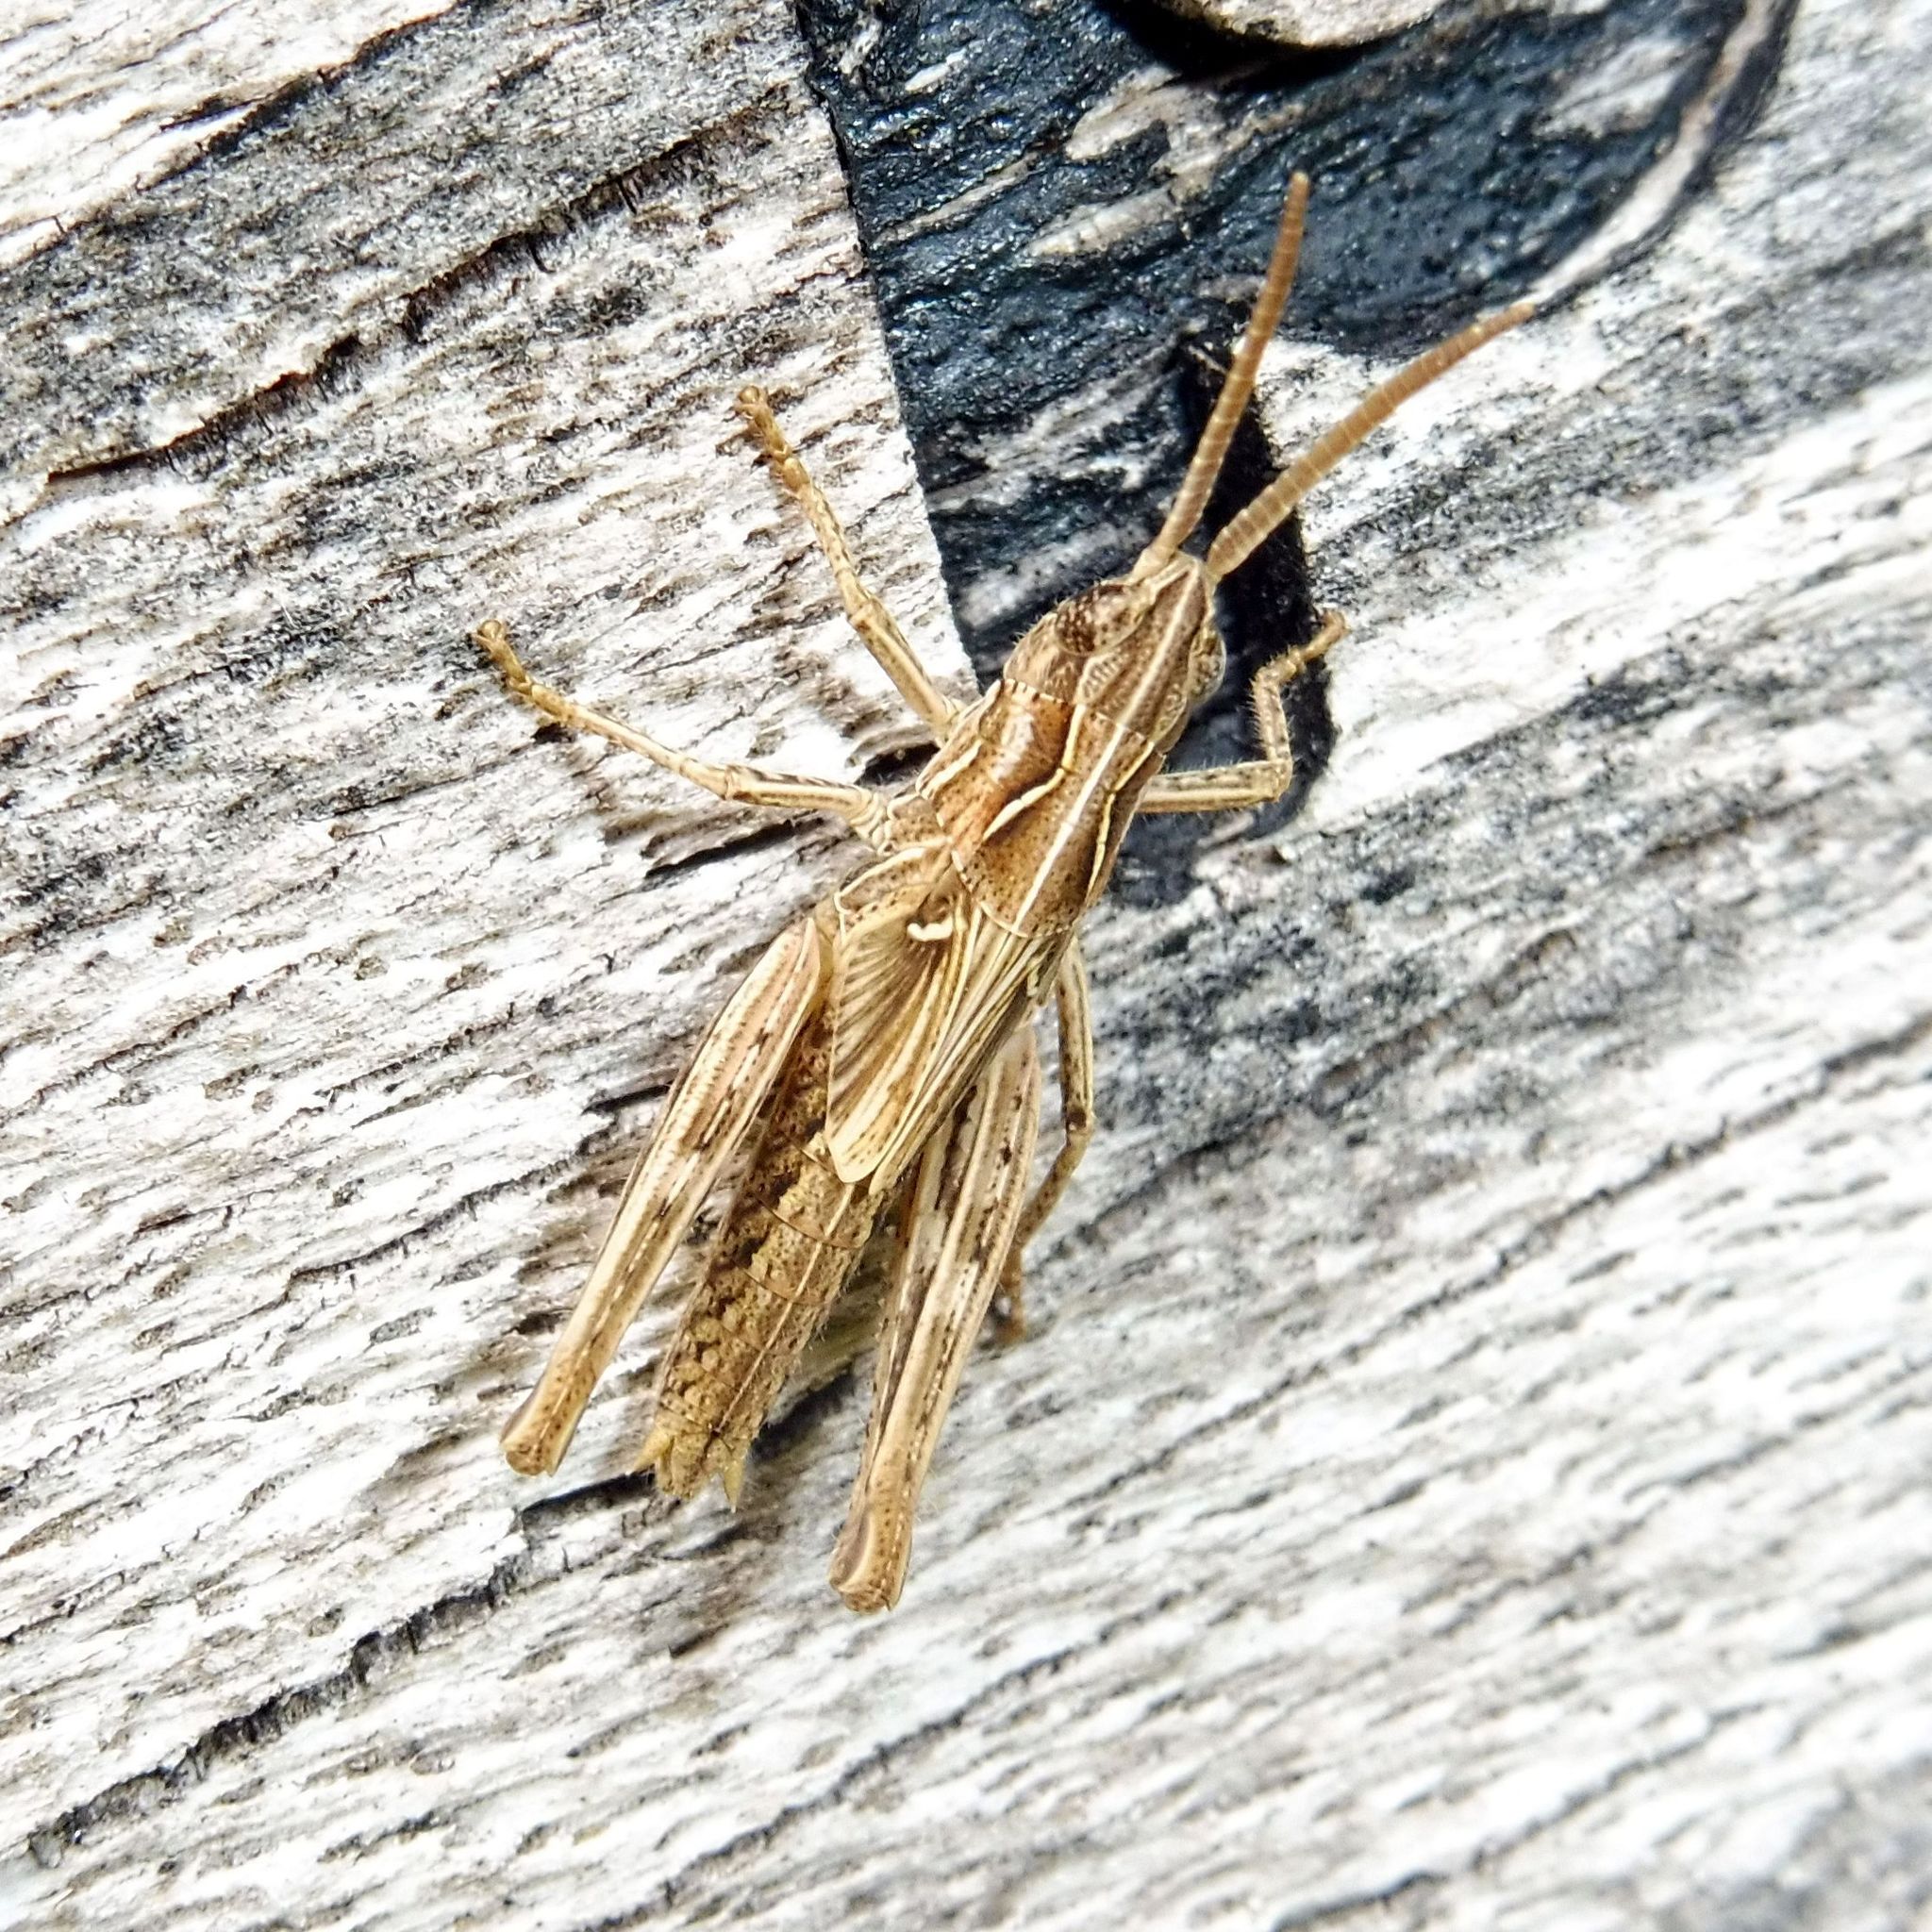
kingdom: Animalia
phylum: Arthropoda
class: Insecta
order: Orthoptera
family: Acrididae
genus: Chorthippus
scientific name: Chorthippus brunneus
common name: Field grasshopper
